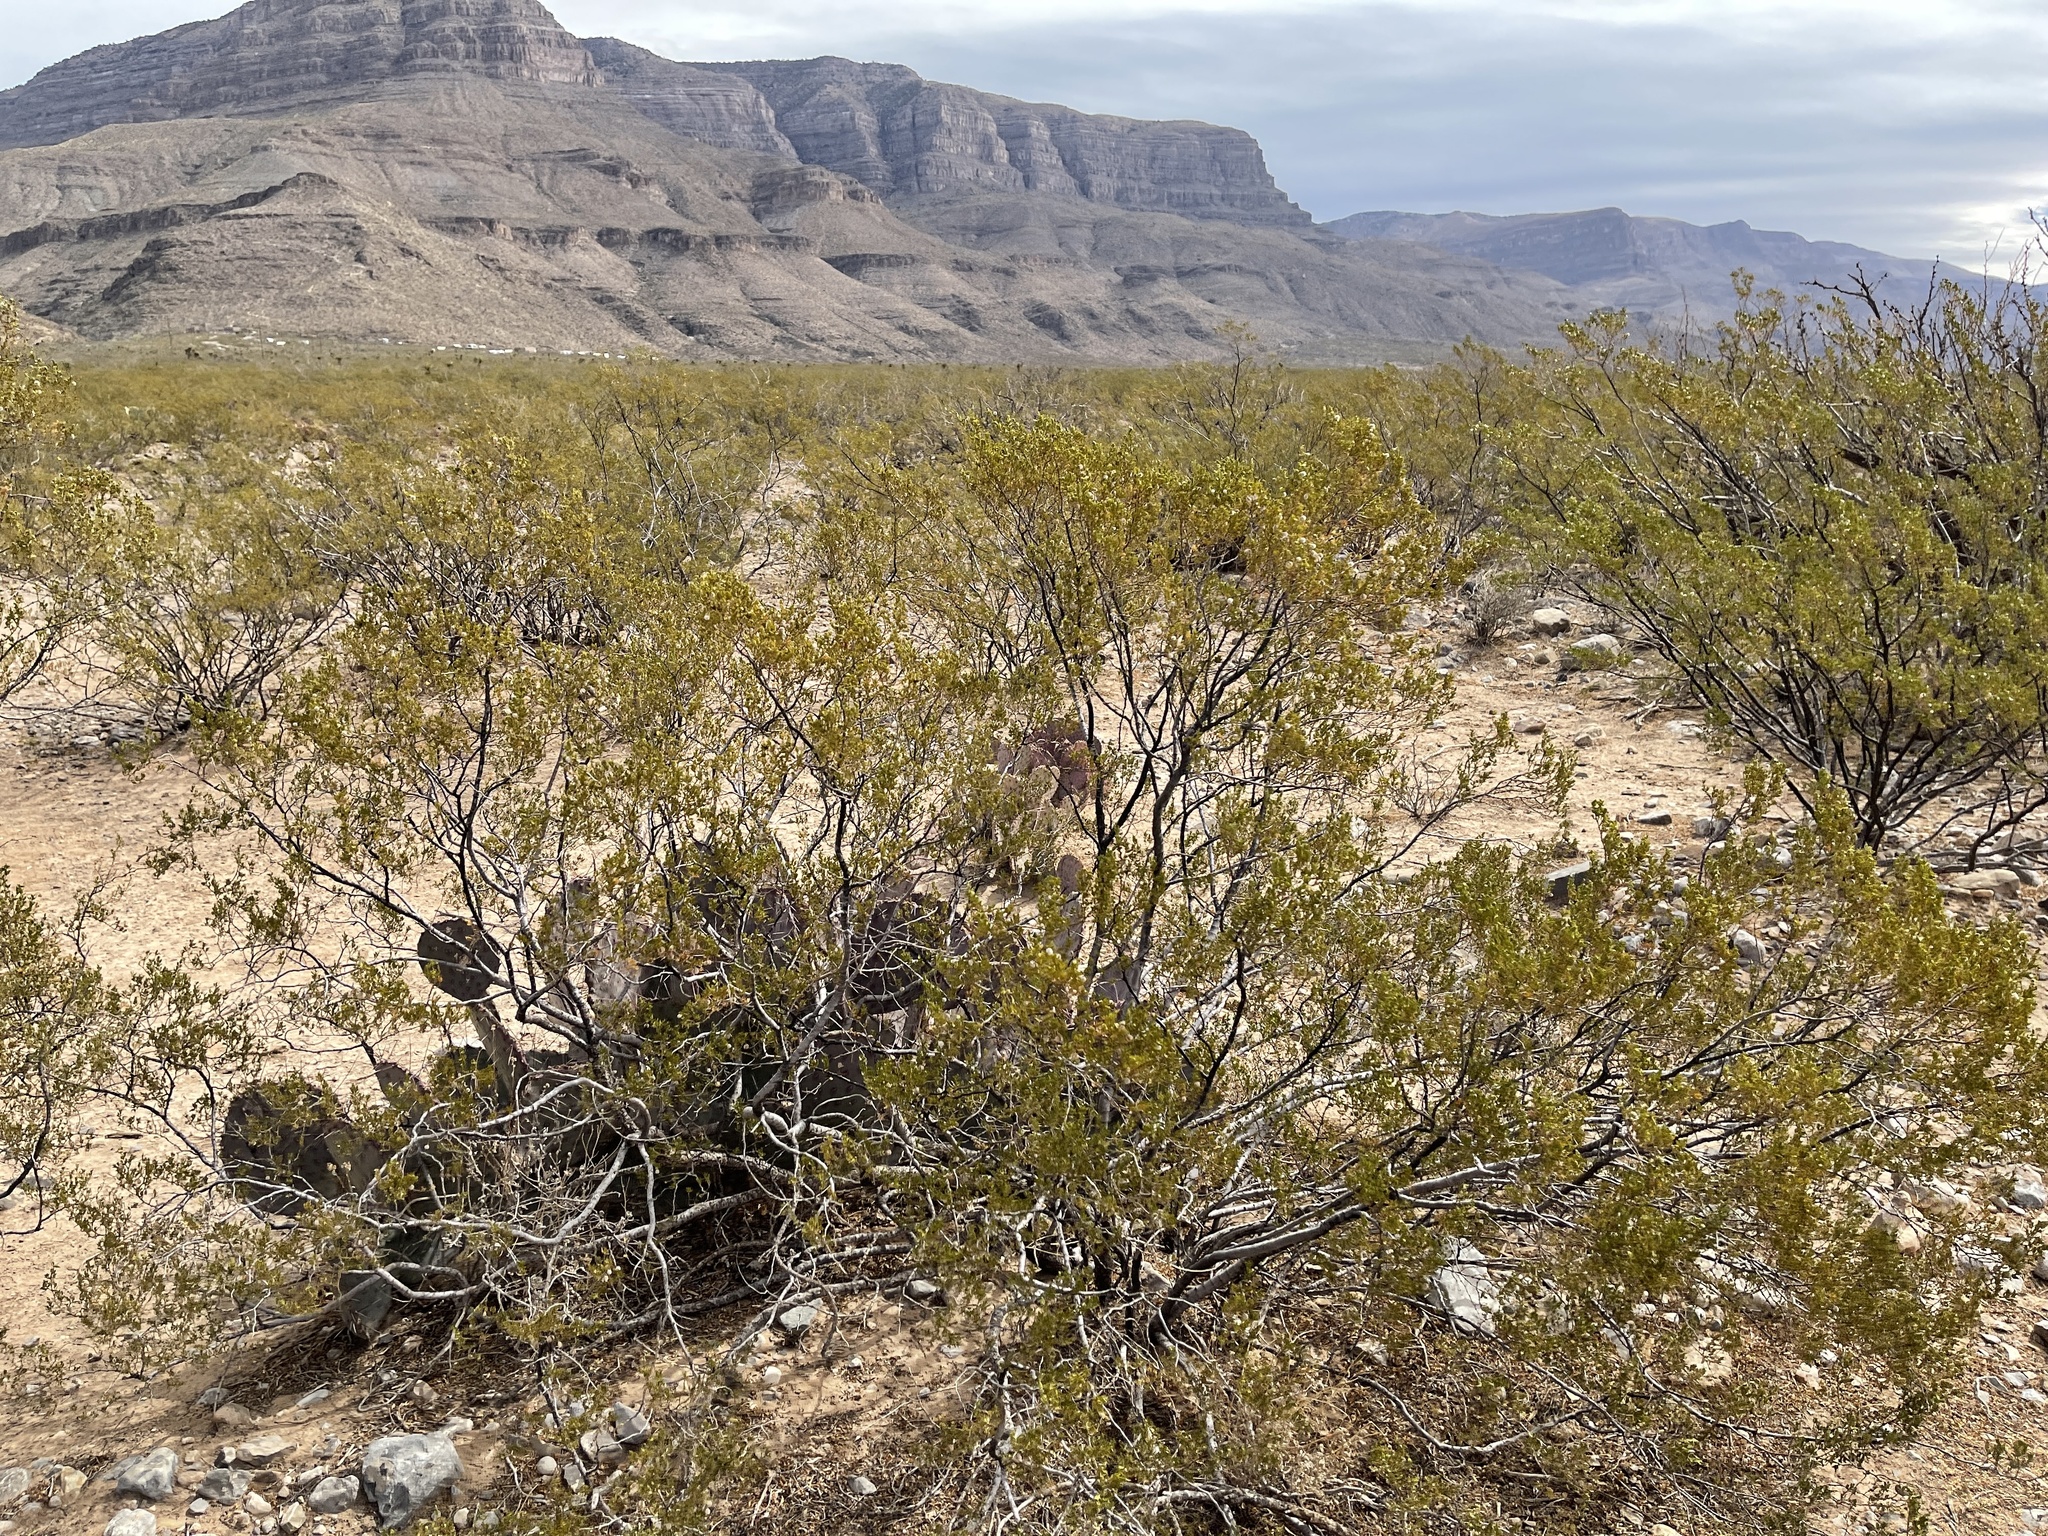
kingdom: Plantae
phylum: Tracheophyta
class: Magnoliopsida
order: Zygophyllales
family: Zygophyllaceae
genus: Larrea
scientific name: Larrea tridentata
